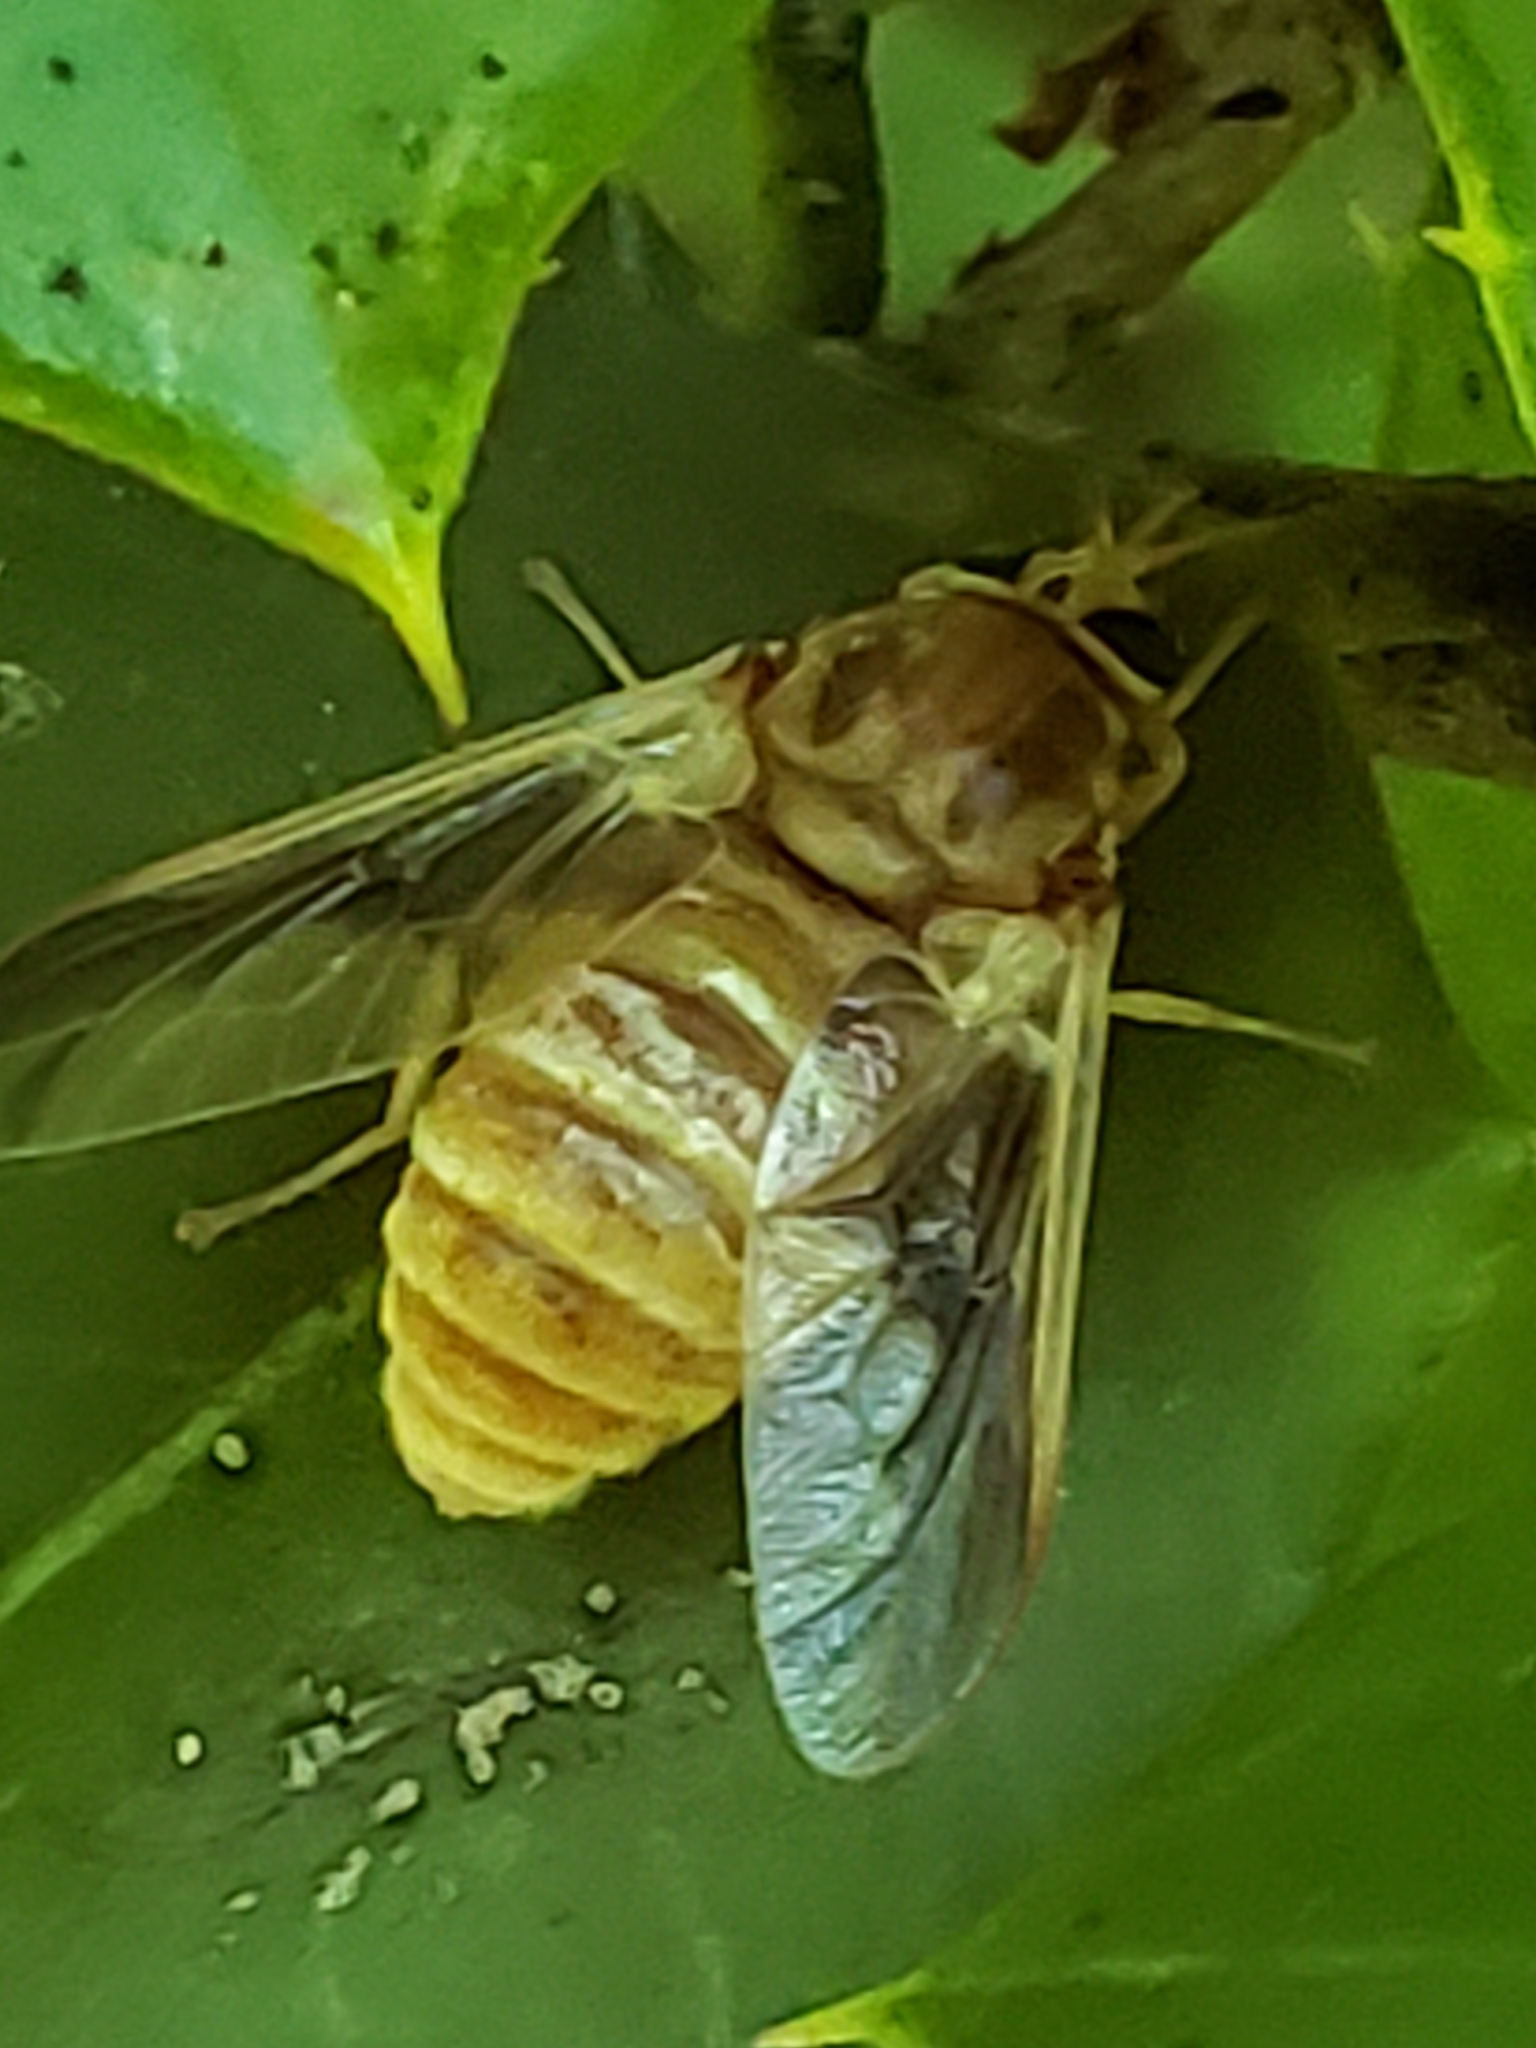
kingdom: Animalia
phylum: Arthropoda
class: Insecta
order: Diptera
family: Tabanidae
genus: Goniops
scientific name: Goniops chrysocoma
